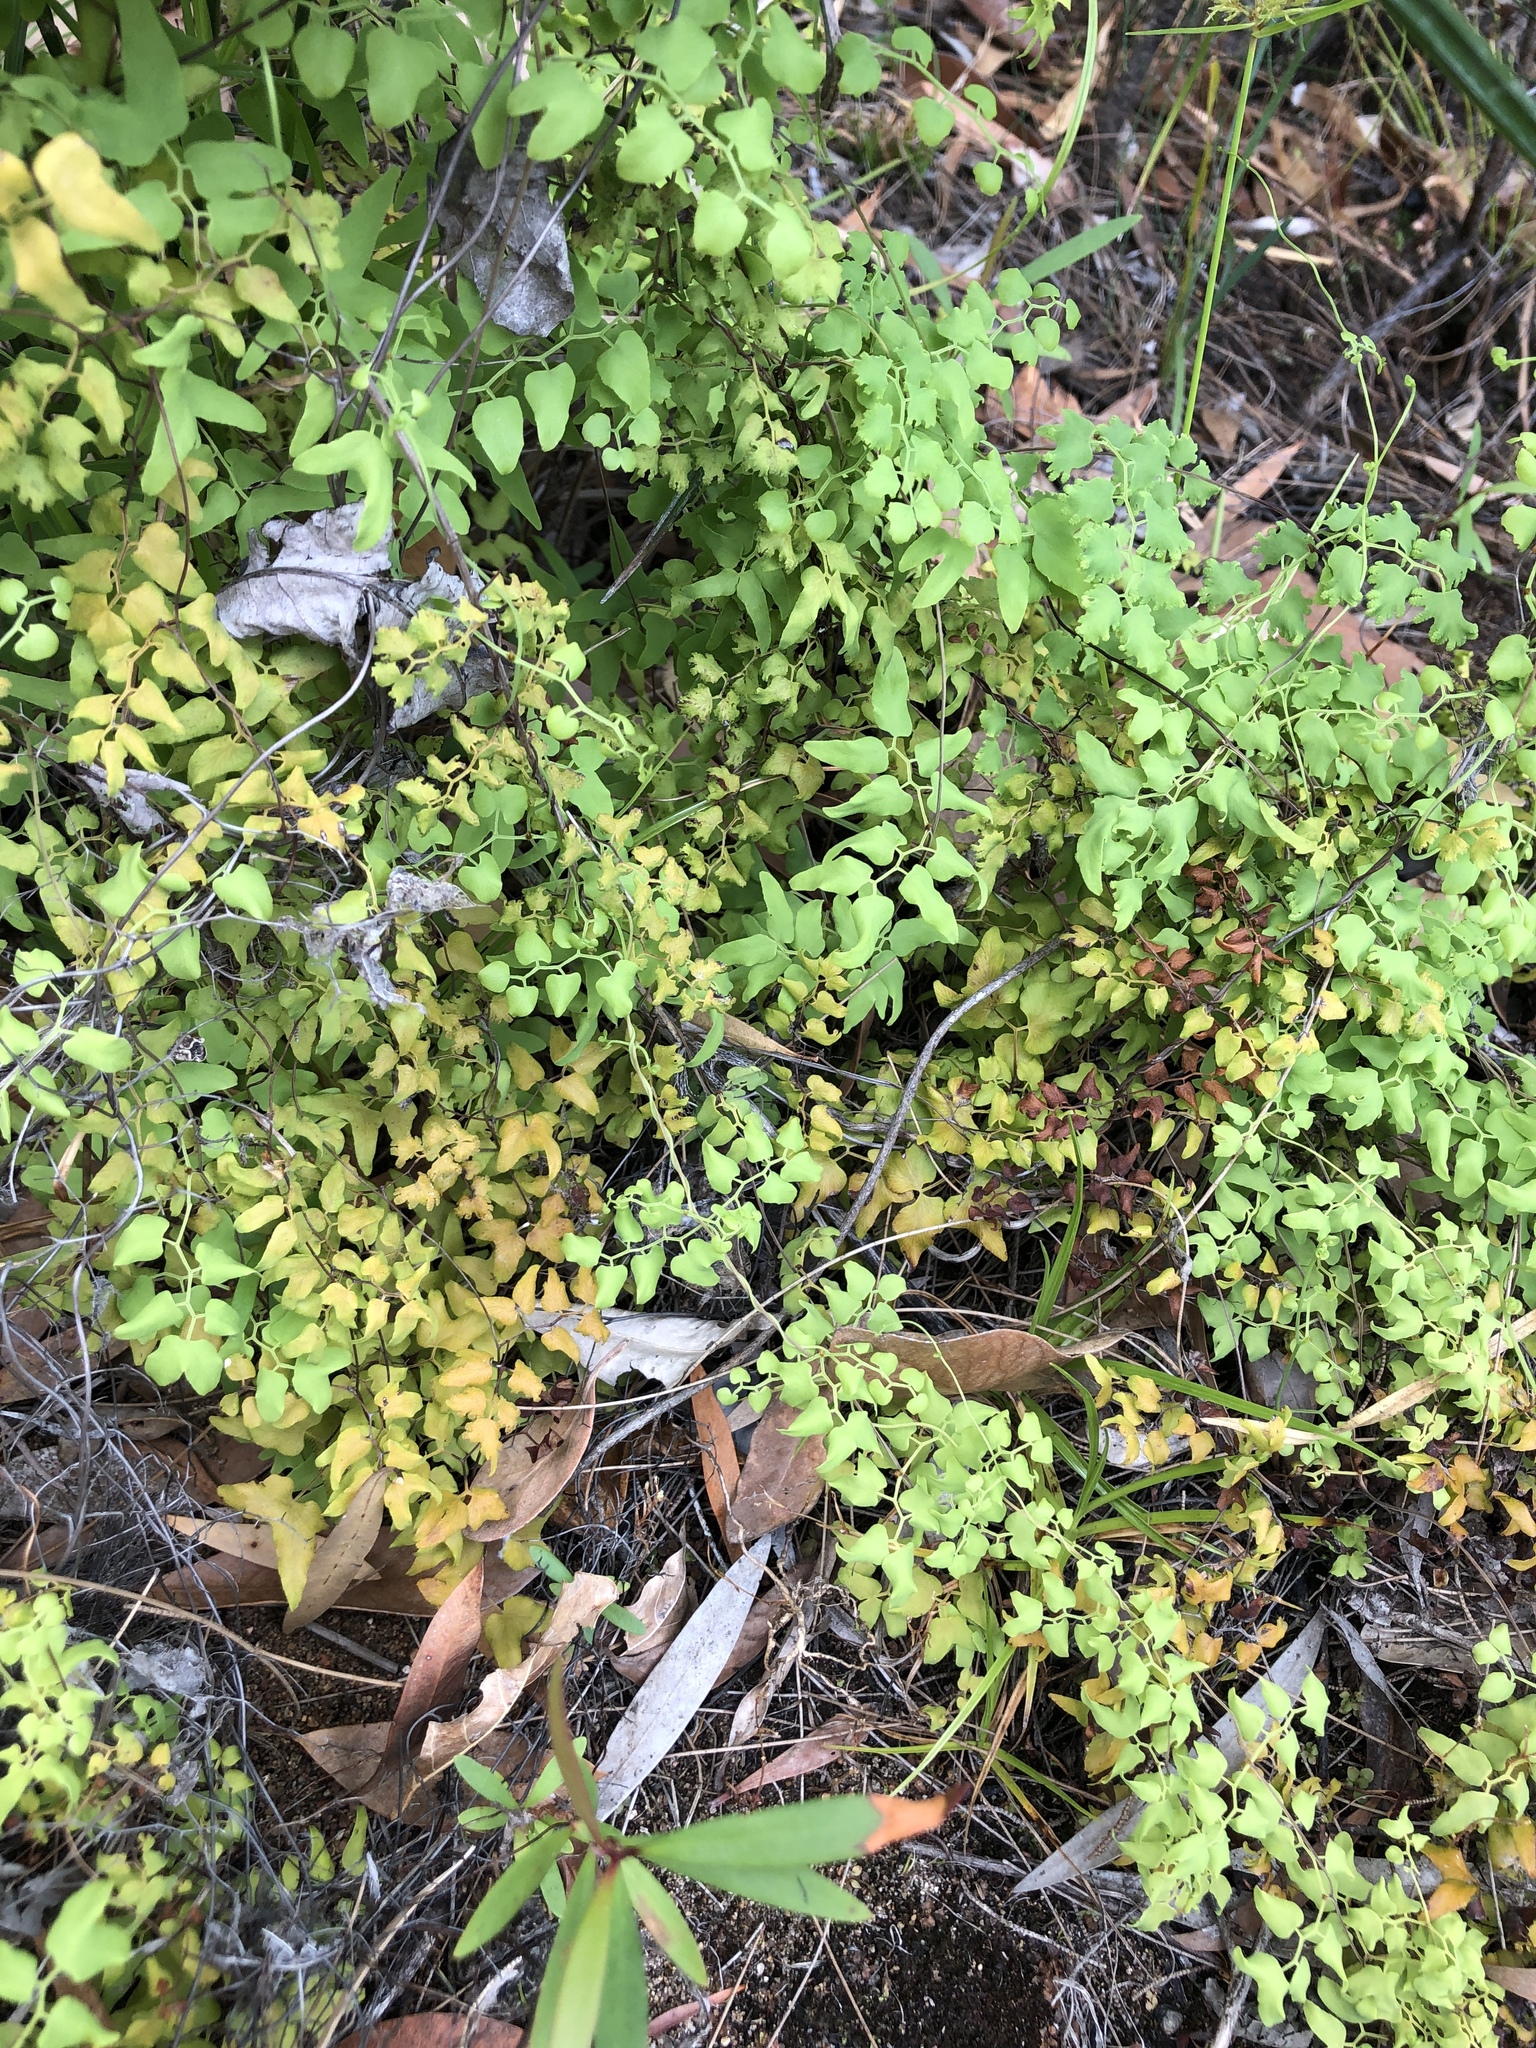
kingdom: Plantae
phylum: Tracheophyta
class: Polypodiopsida
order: Schizaeales
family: Lygodiaceae
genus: Lygodium
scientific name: Lygodium microphyllum
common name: Small-leaf climbing fern
